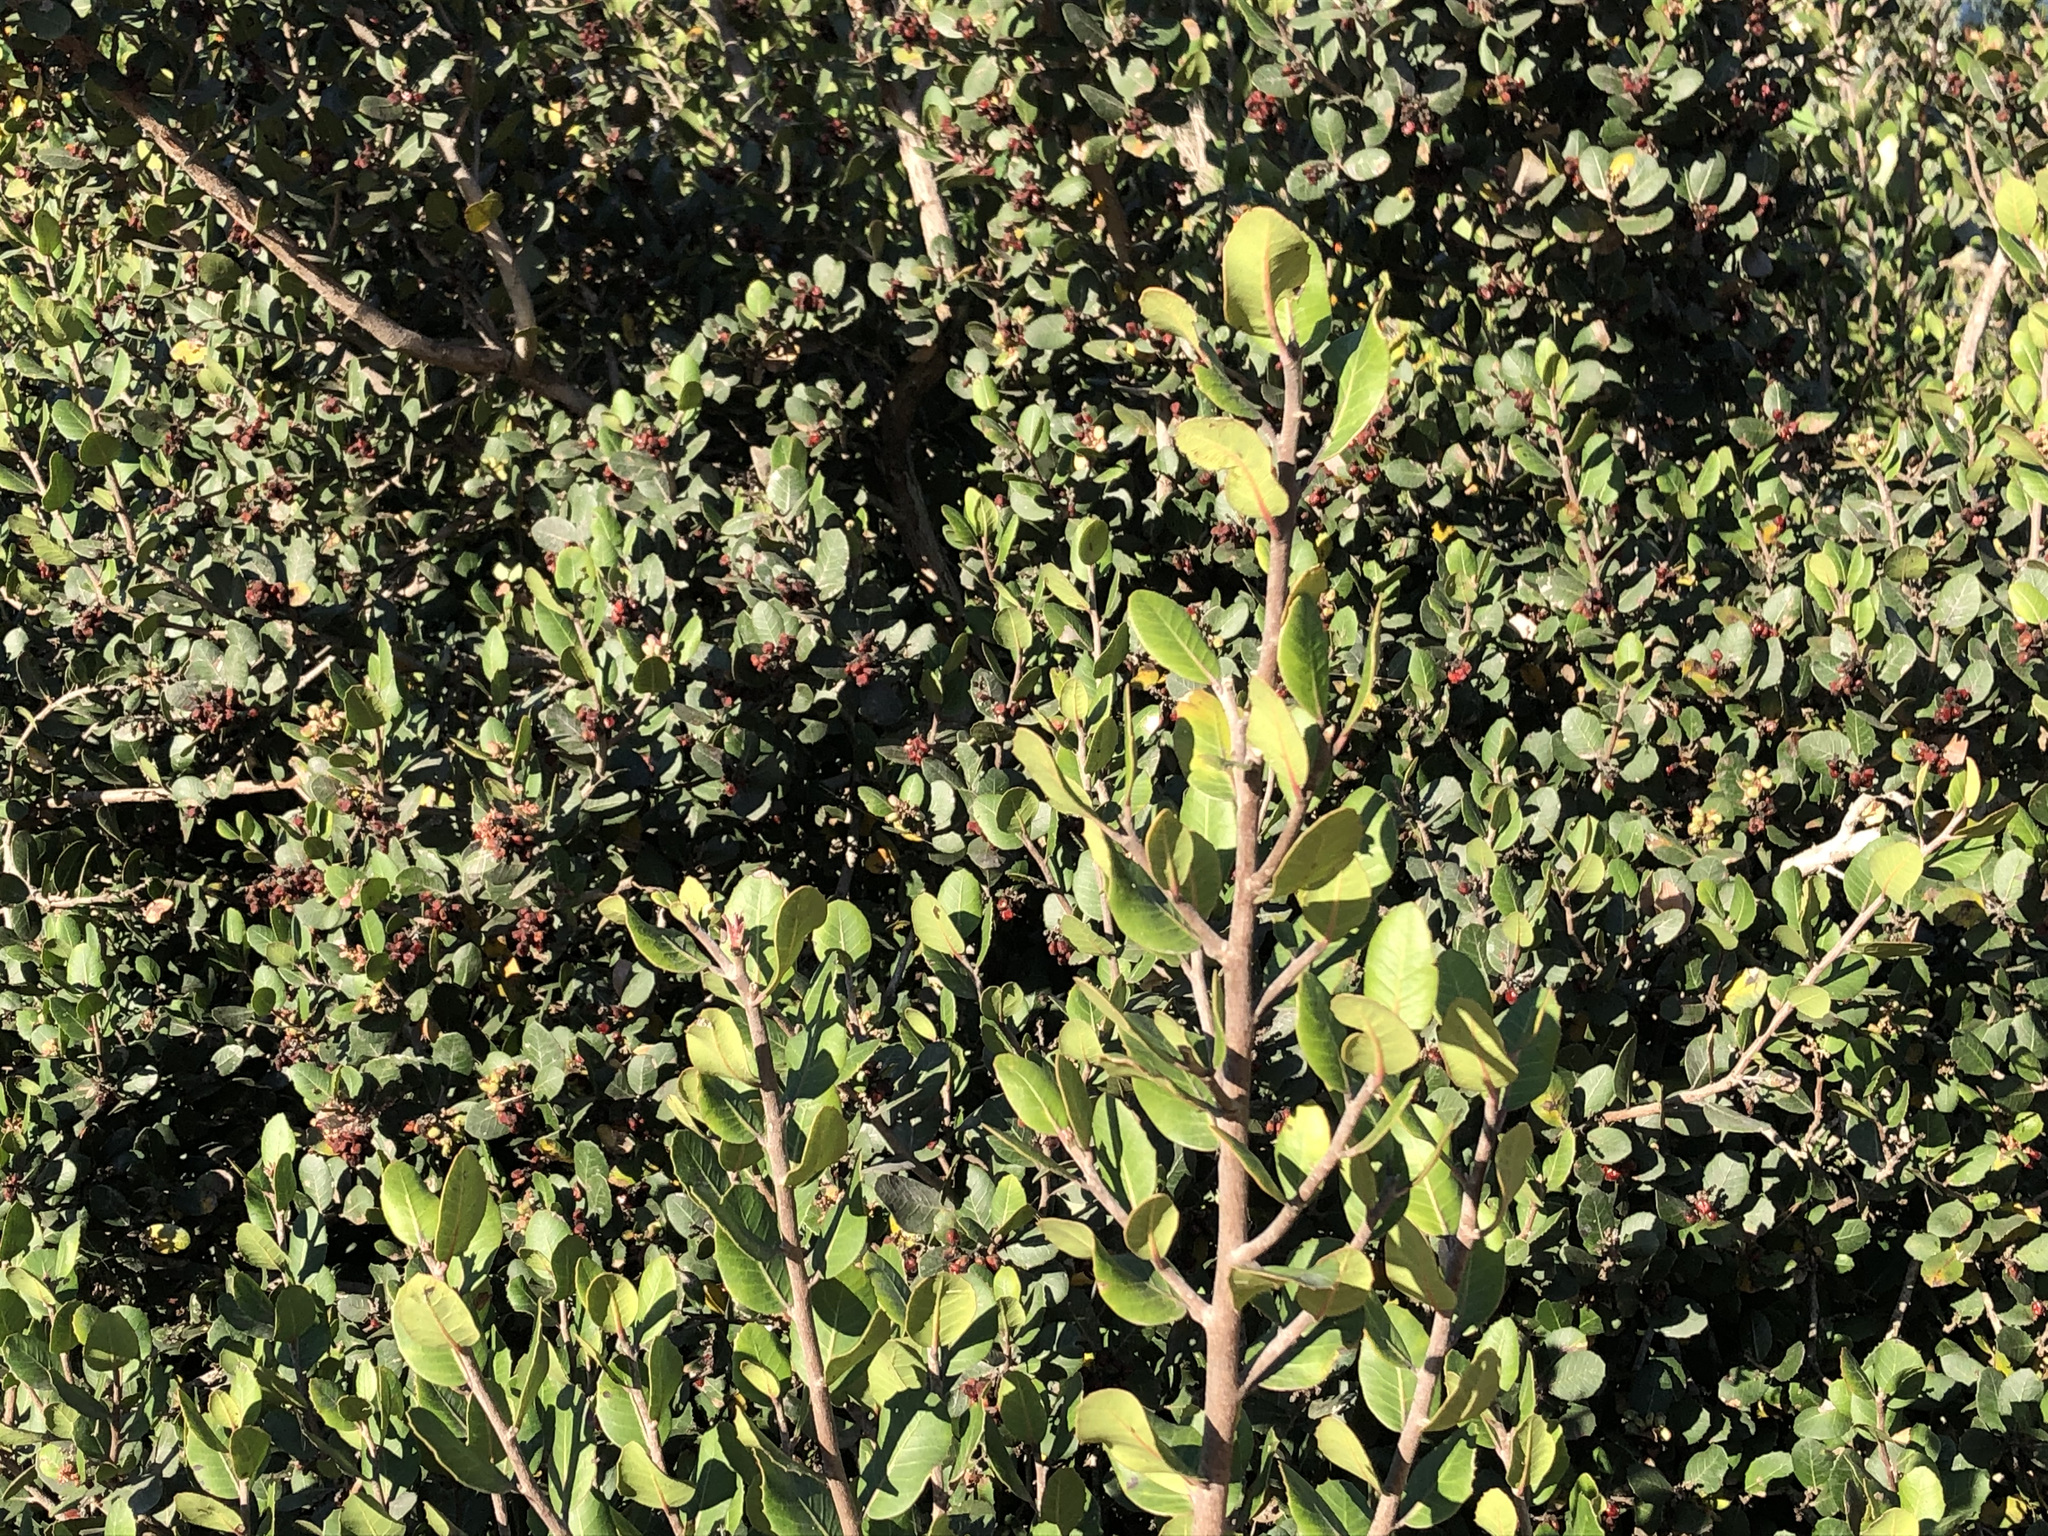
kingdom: Plantae
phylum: Tracheophyta
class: Magnoliopsida
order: Sapindales
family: Anacardiaceae
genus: Rhus
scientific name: Rhus integrifolia
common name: Lemonade sumac
